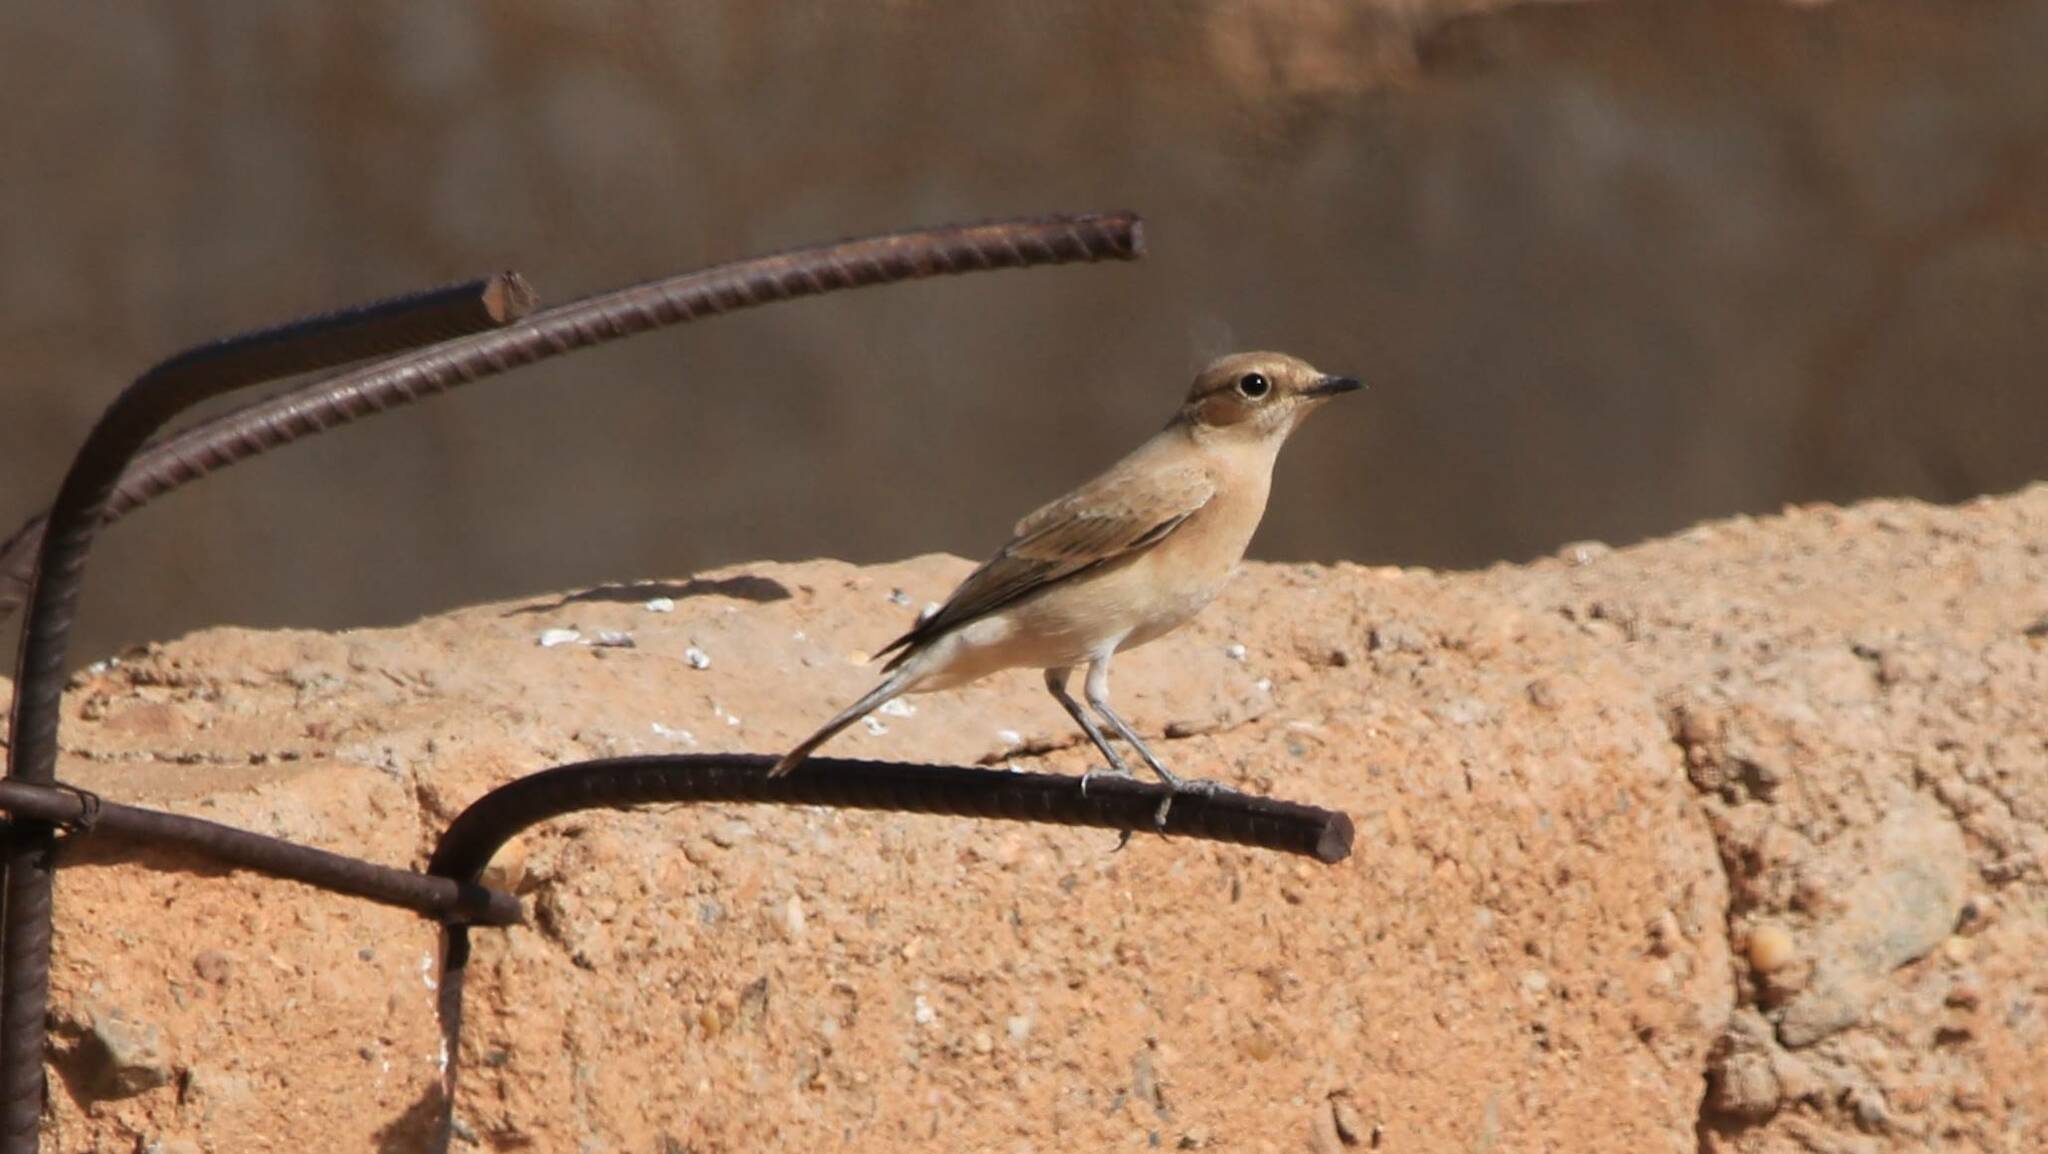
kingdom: Animalia
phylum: Chordata
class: Aves
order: Passeriformes
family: Muscicapidae
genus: Oenanthe
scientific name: Oenanthe deserti
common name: Desert wheatear
